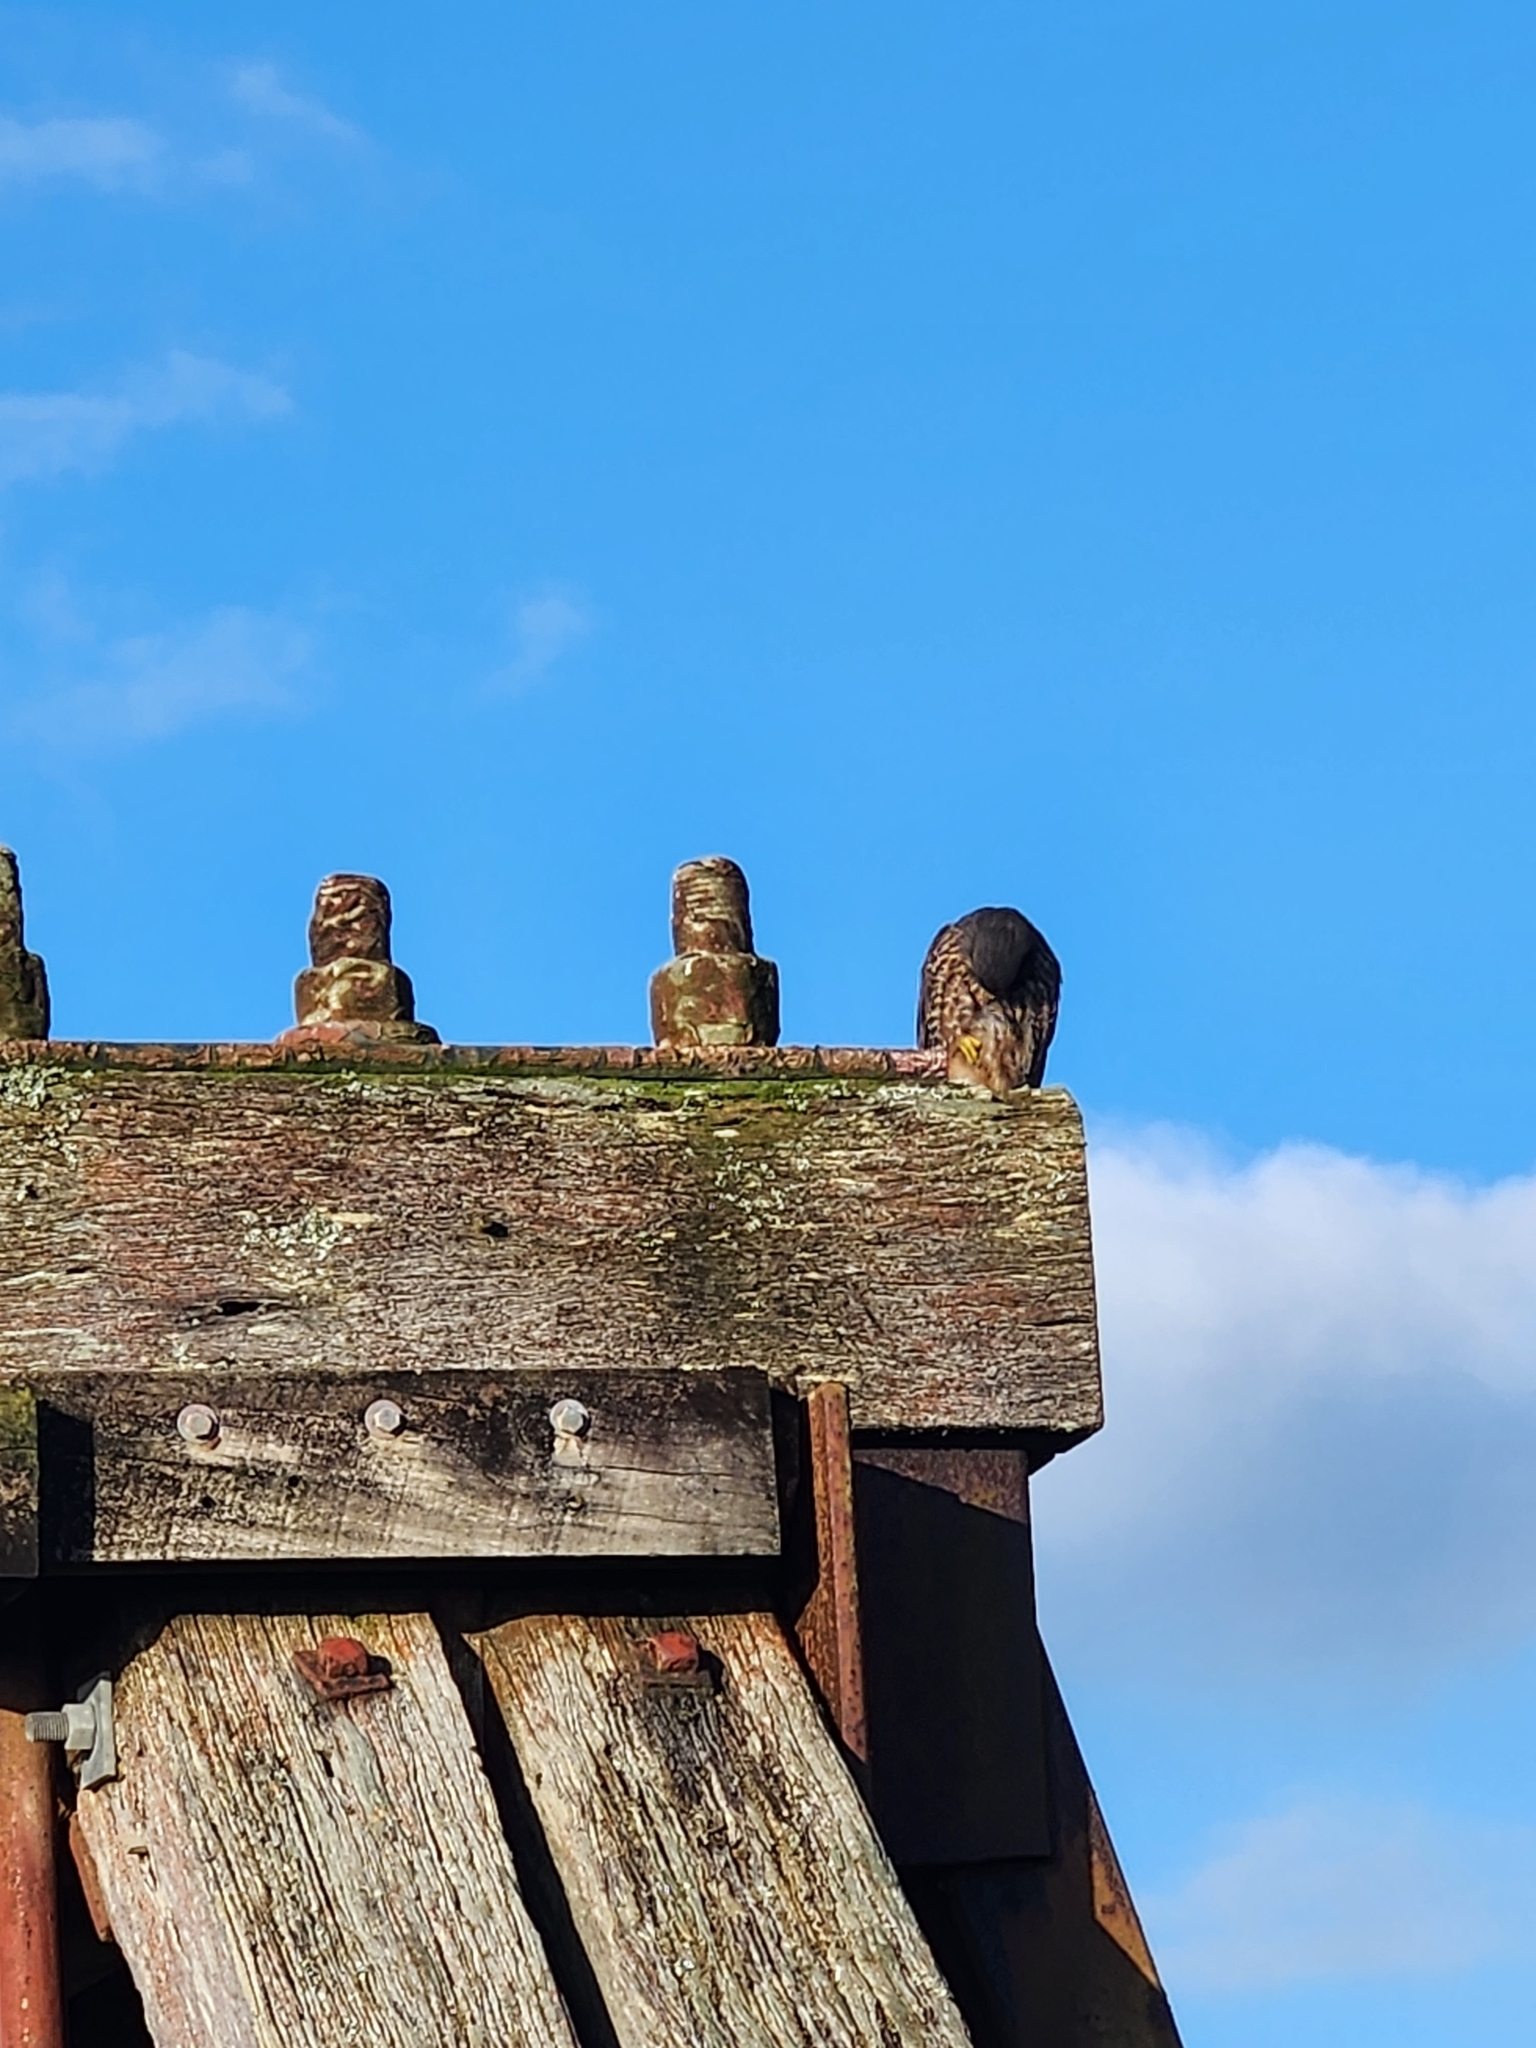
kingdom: Animalia
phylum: Chordata
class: Aves
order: Falconiformes
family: Falconidae
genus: Falco
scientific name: Falco novaeseelandiae
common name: New zealand falcon
